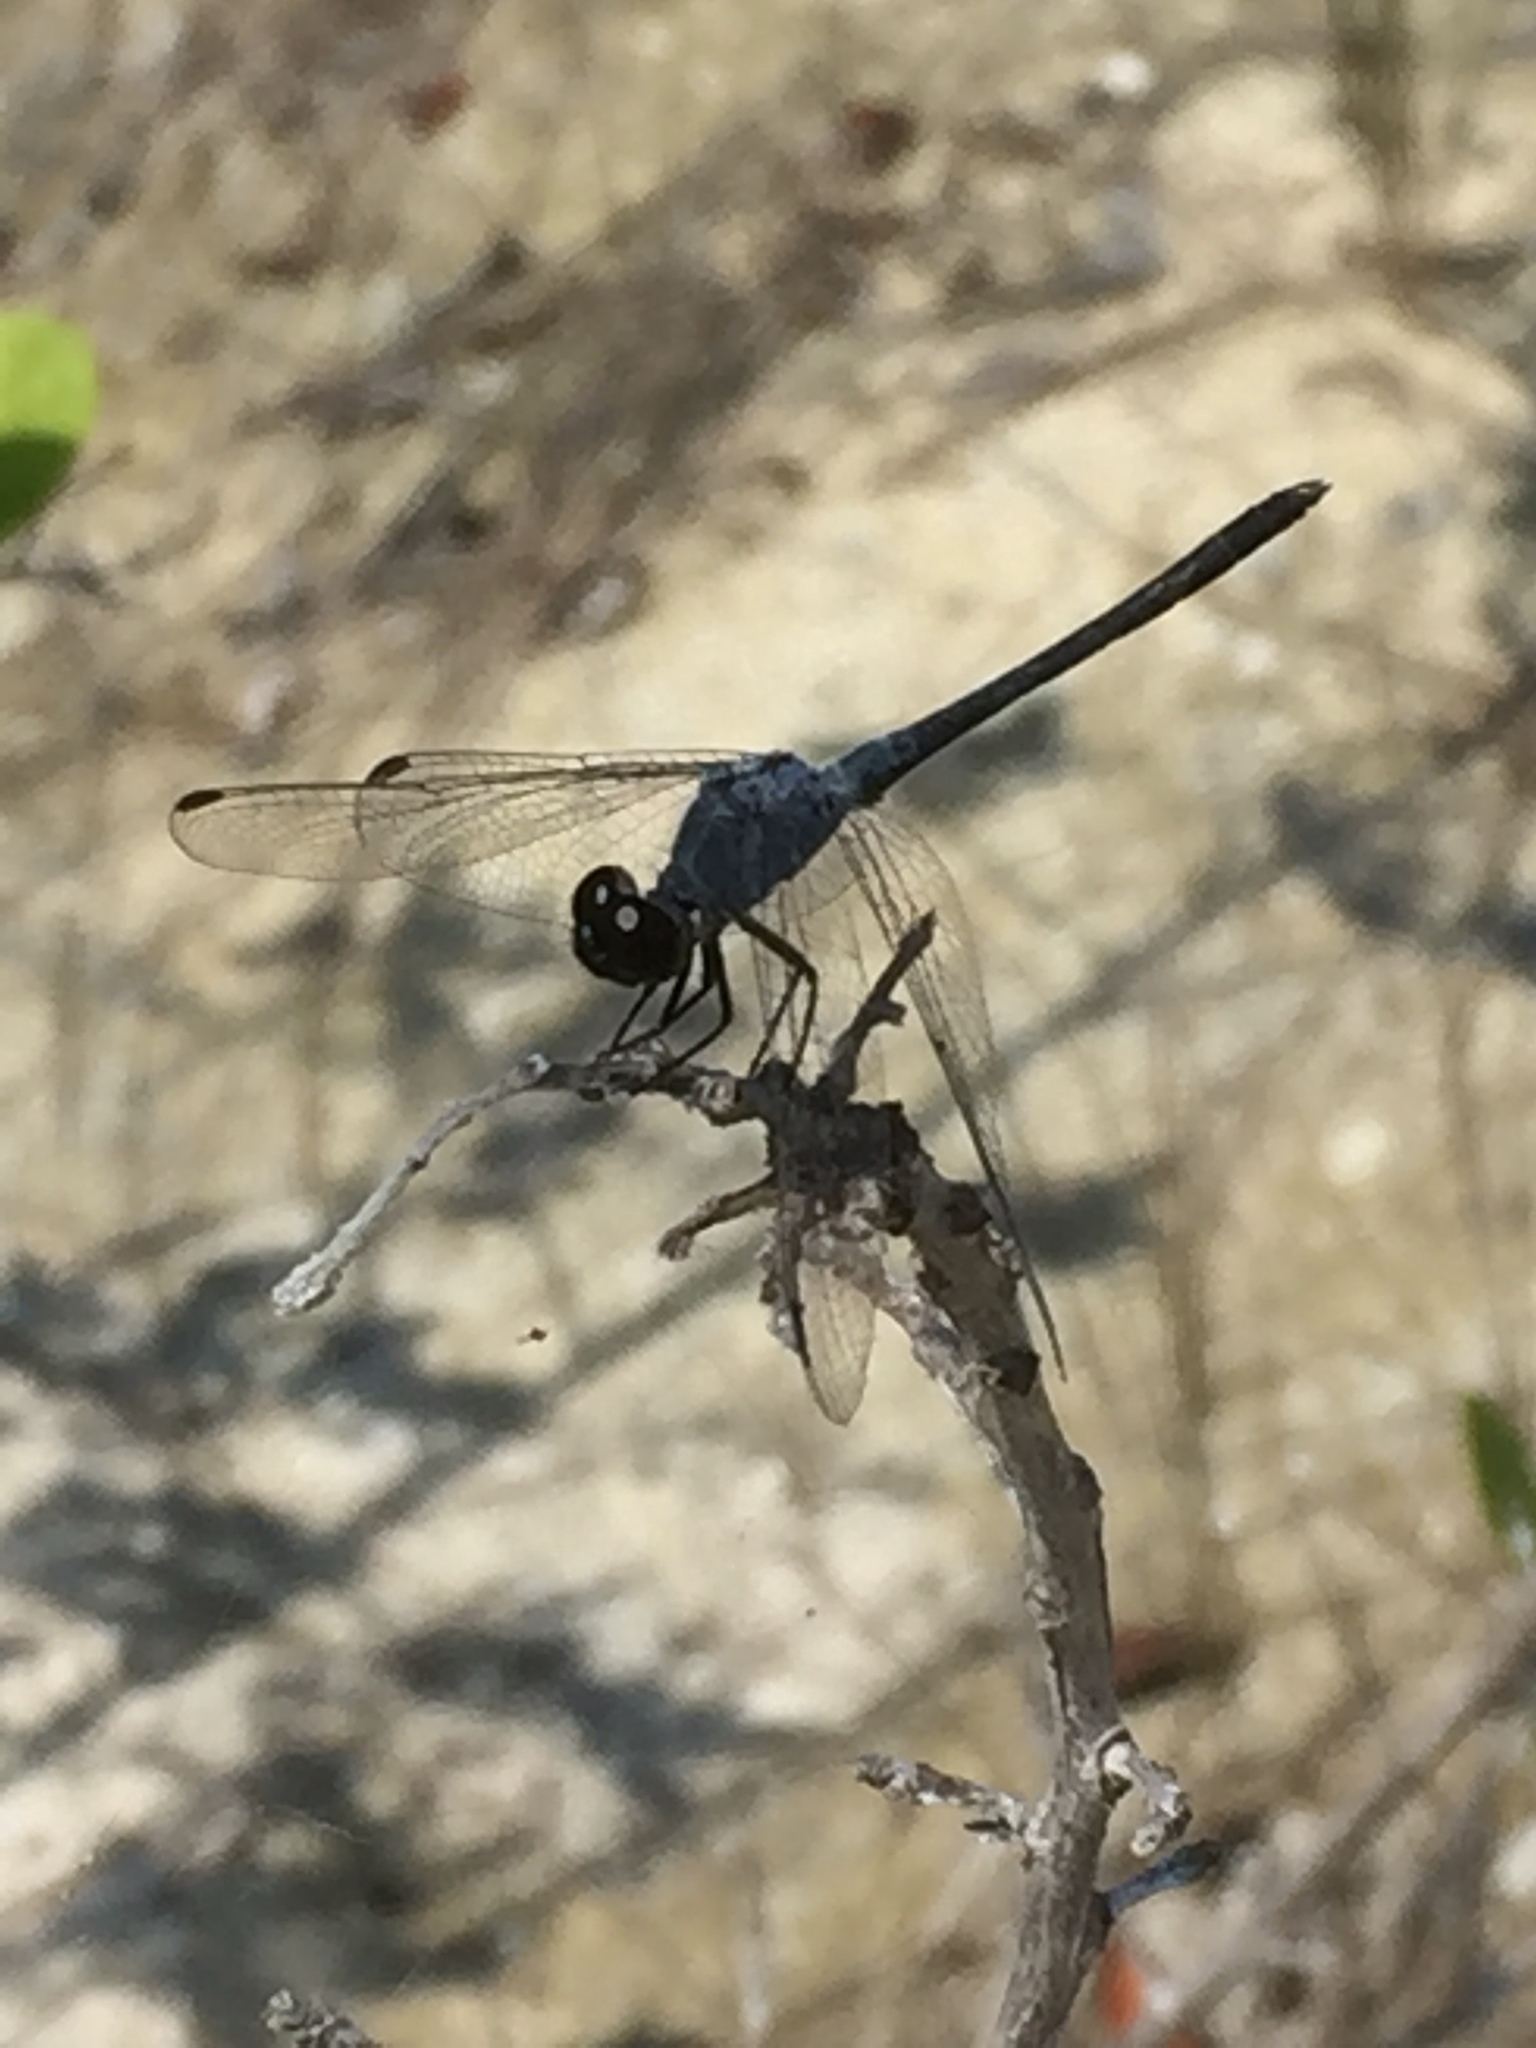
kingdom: Animalia
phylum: Arthropoda
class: Insecta
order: Odonata
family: Libellulidae
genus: Erythrodiplax
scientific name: Erythrodiplax berenice
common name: Seaside dragonlet
